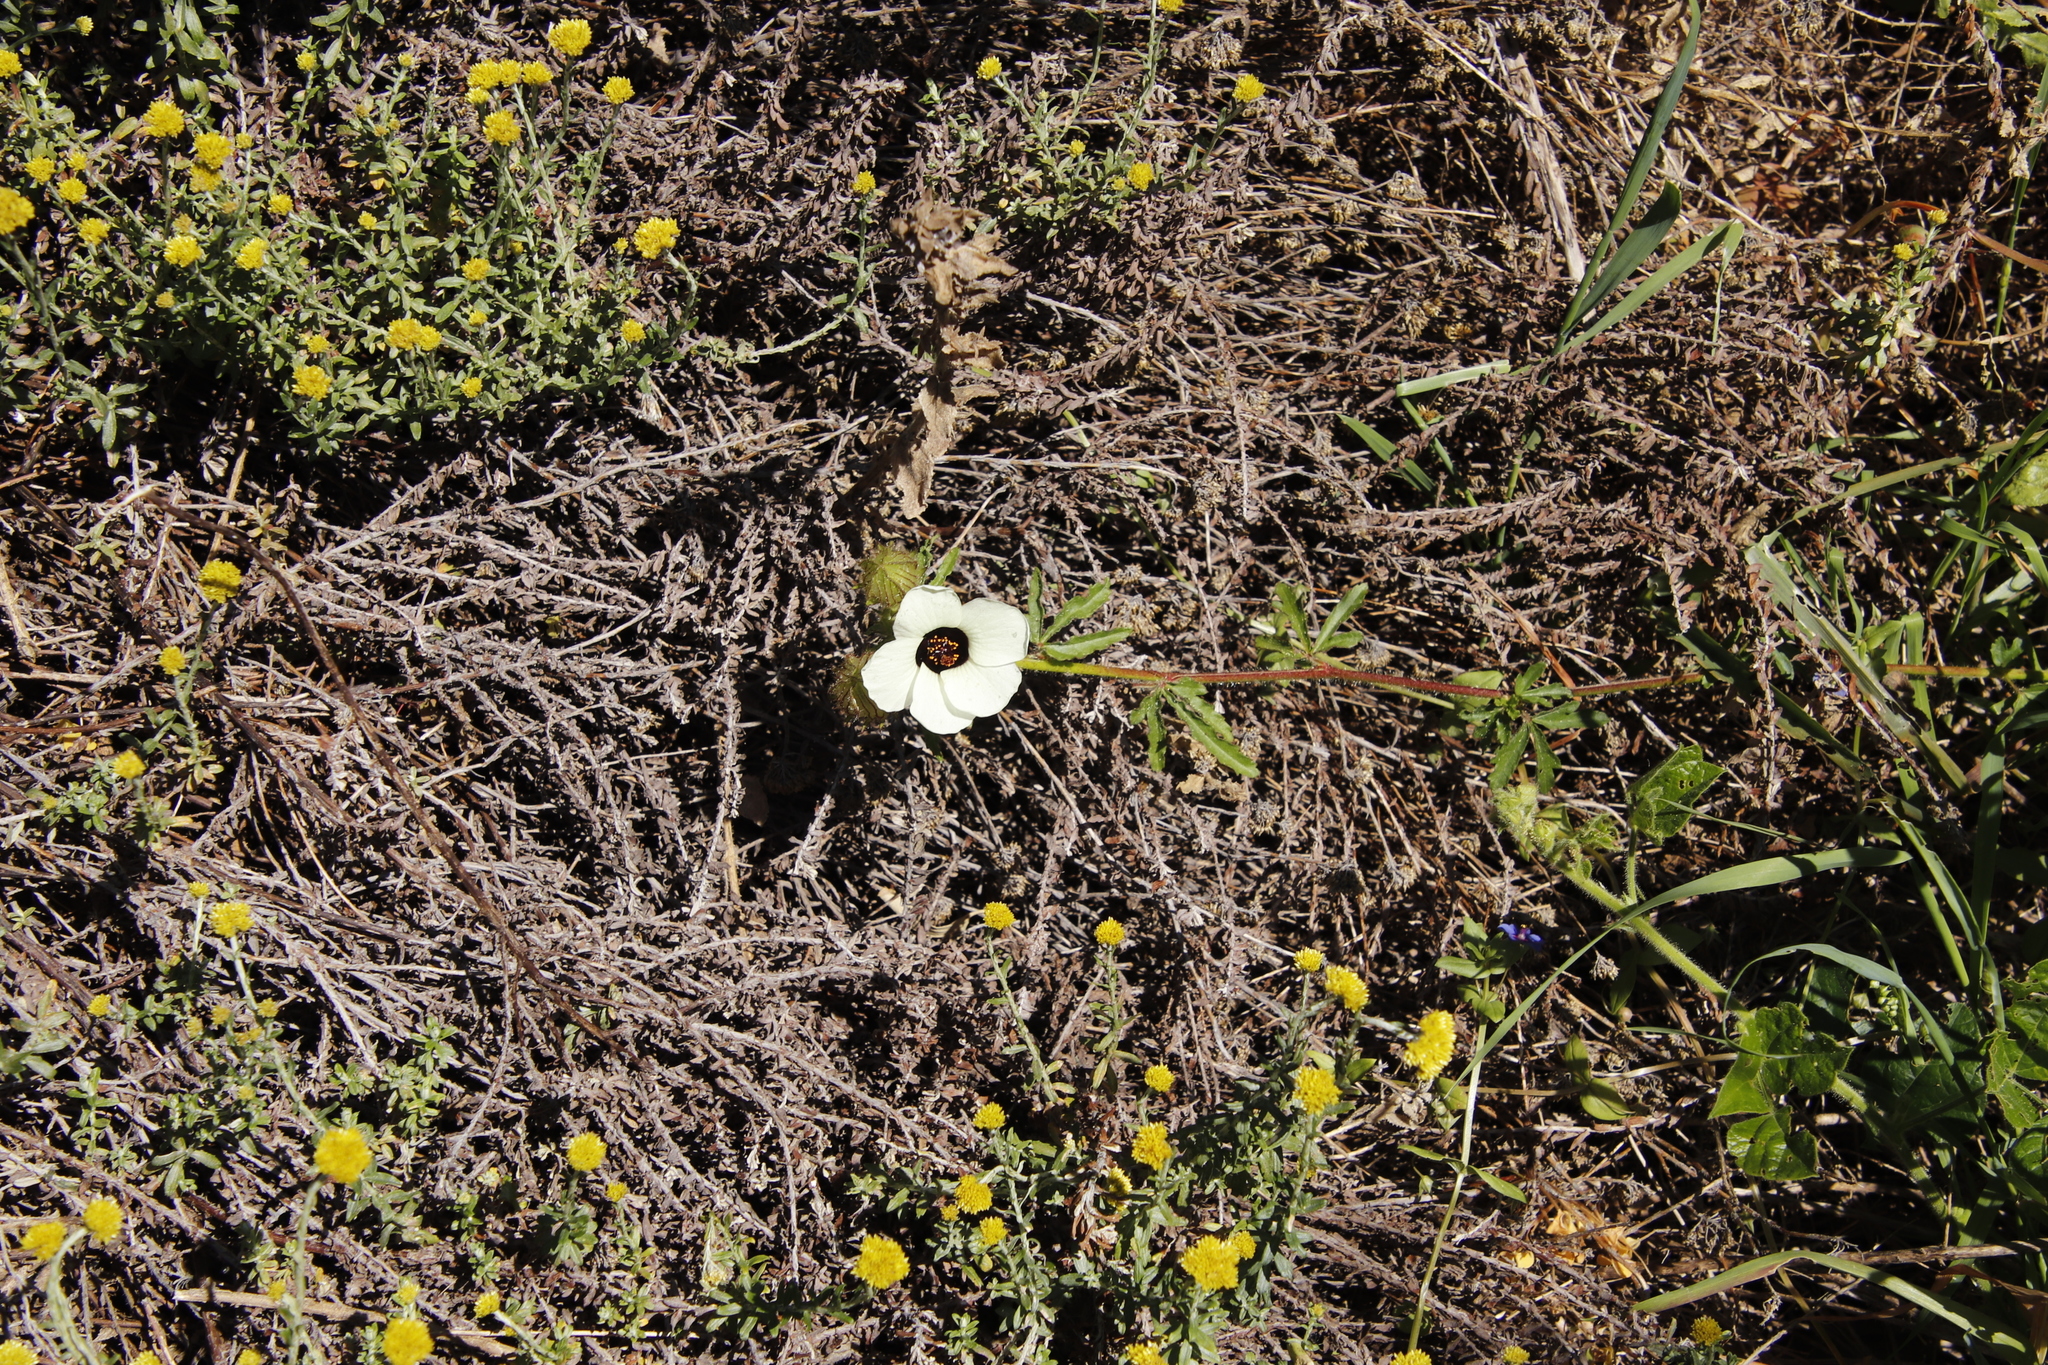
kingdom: Plantae
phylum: Tracheophyta
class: Magnoliopsida
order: Malvales
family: Malvaceae
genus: Hibiscus
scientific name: Hibiscus trionum
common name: Bladder ketmia
